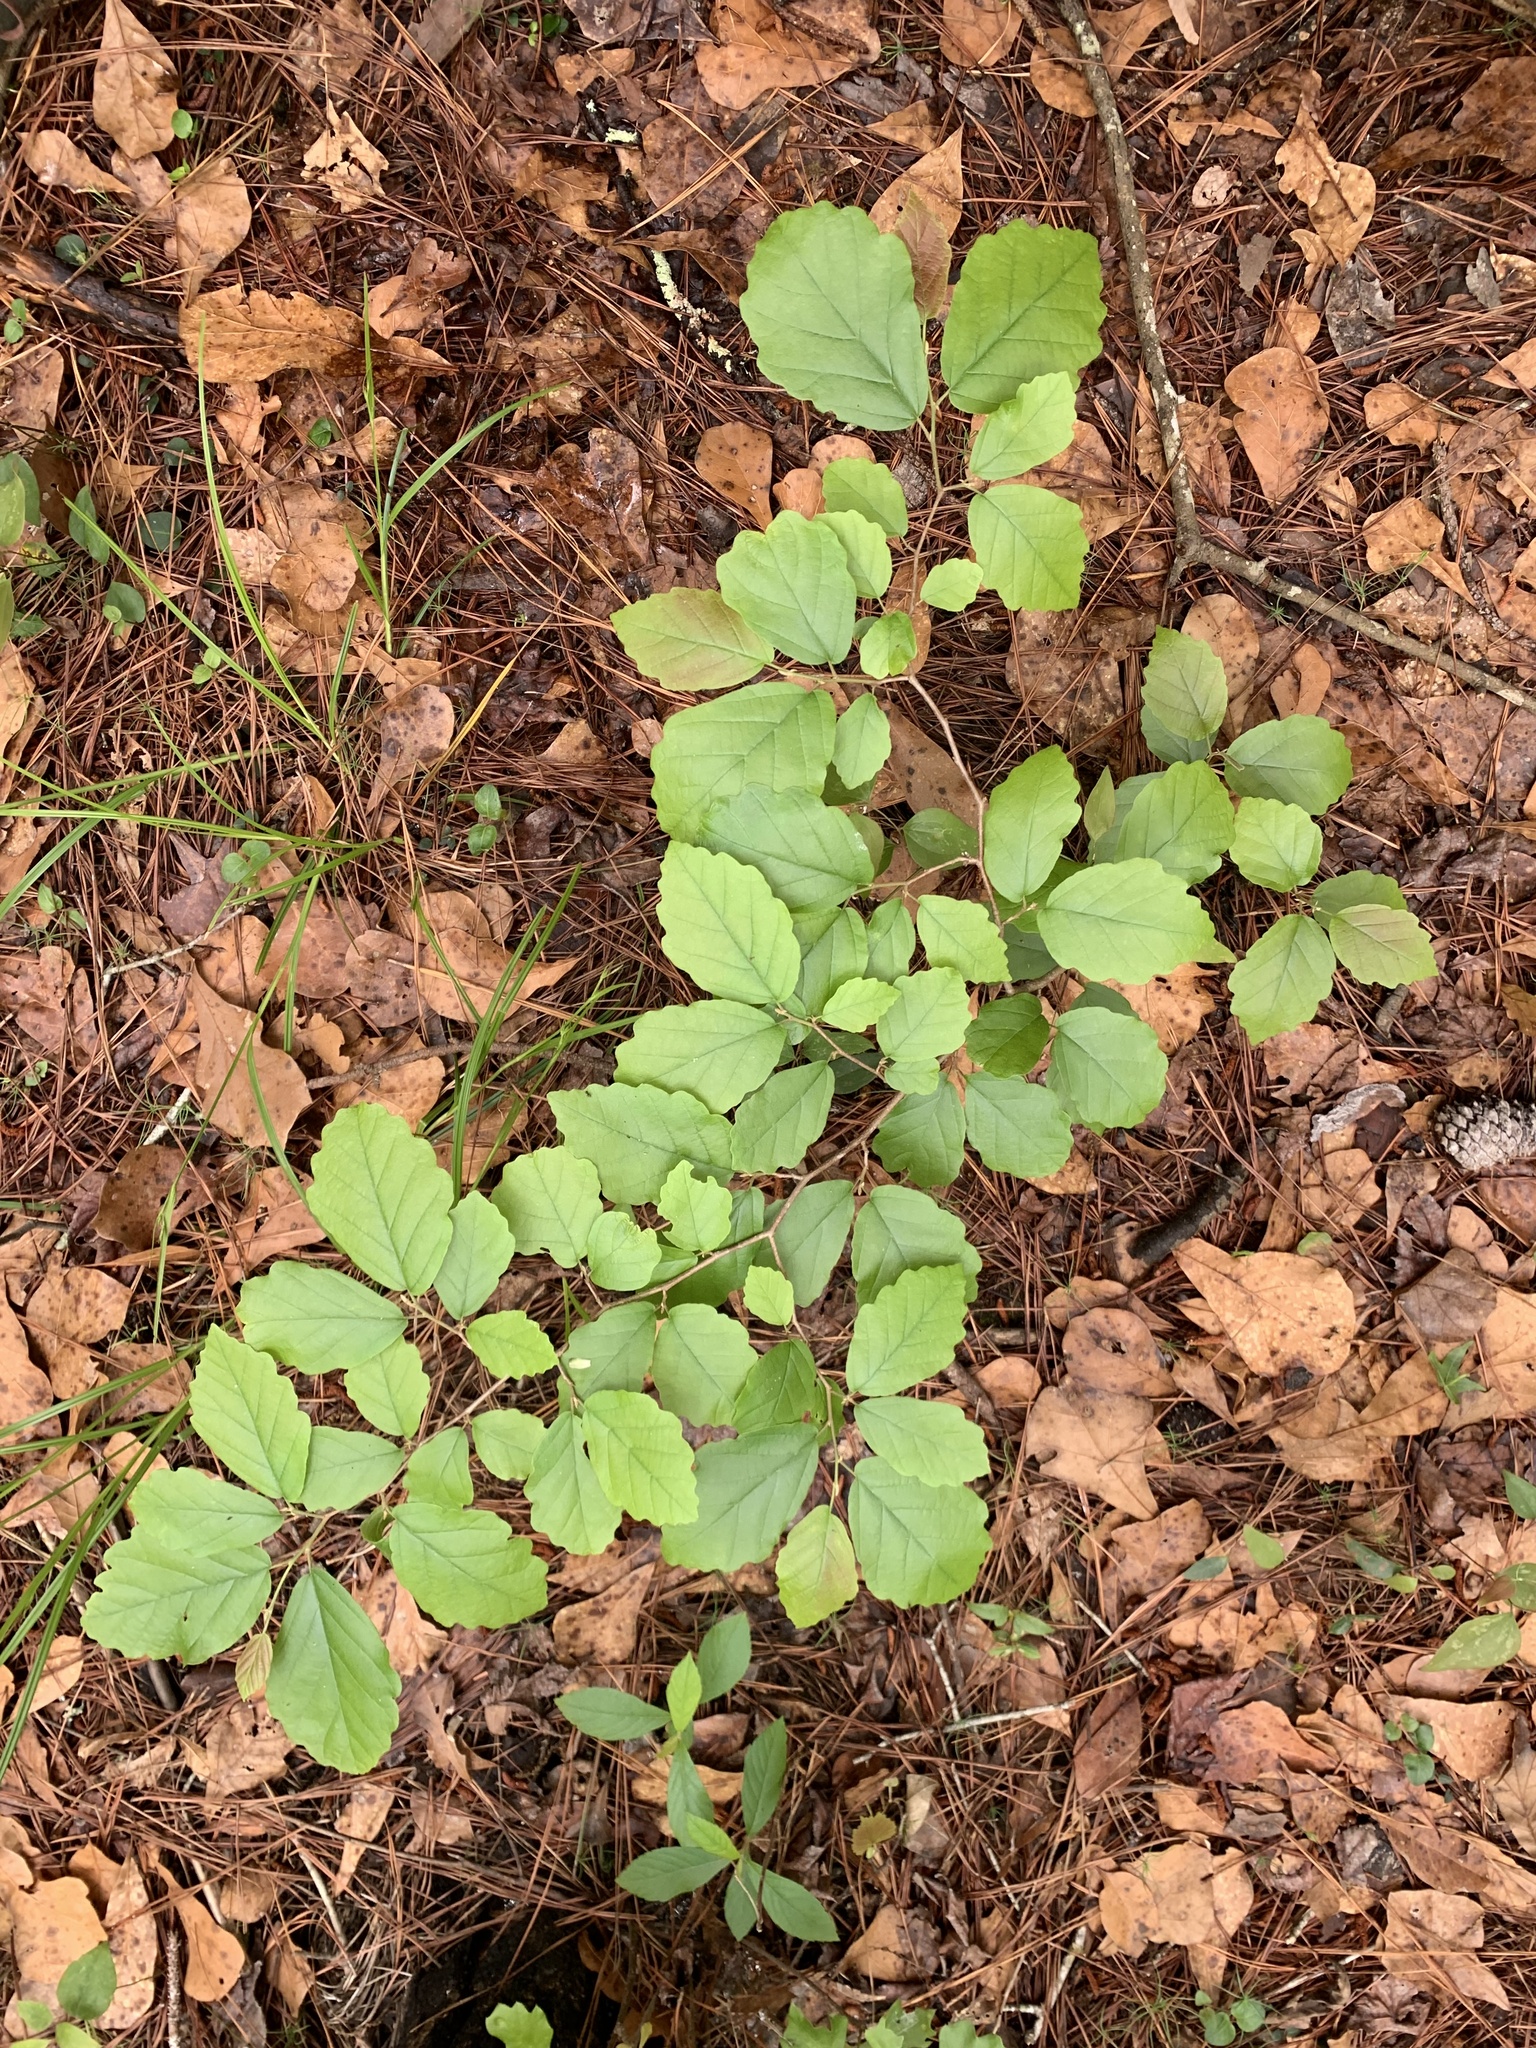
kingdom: Plantae
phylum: Tracheophyta
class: Magnoliopsida
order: Saxifragales
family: Hamamelidaceae
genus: Hamamelis
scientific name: Hamamelis virginiana
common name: Witch-hazel
